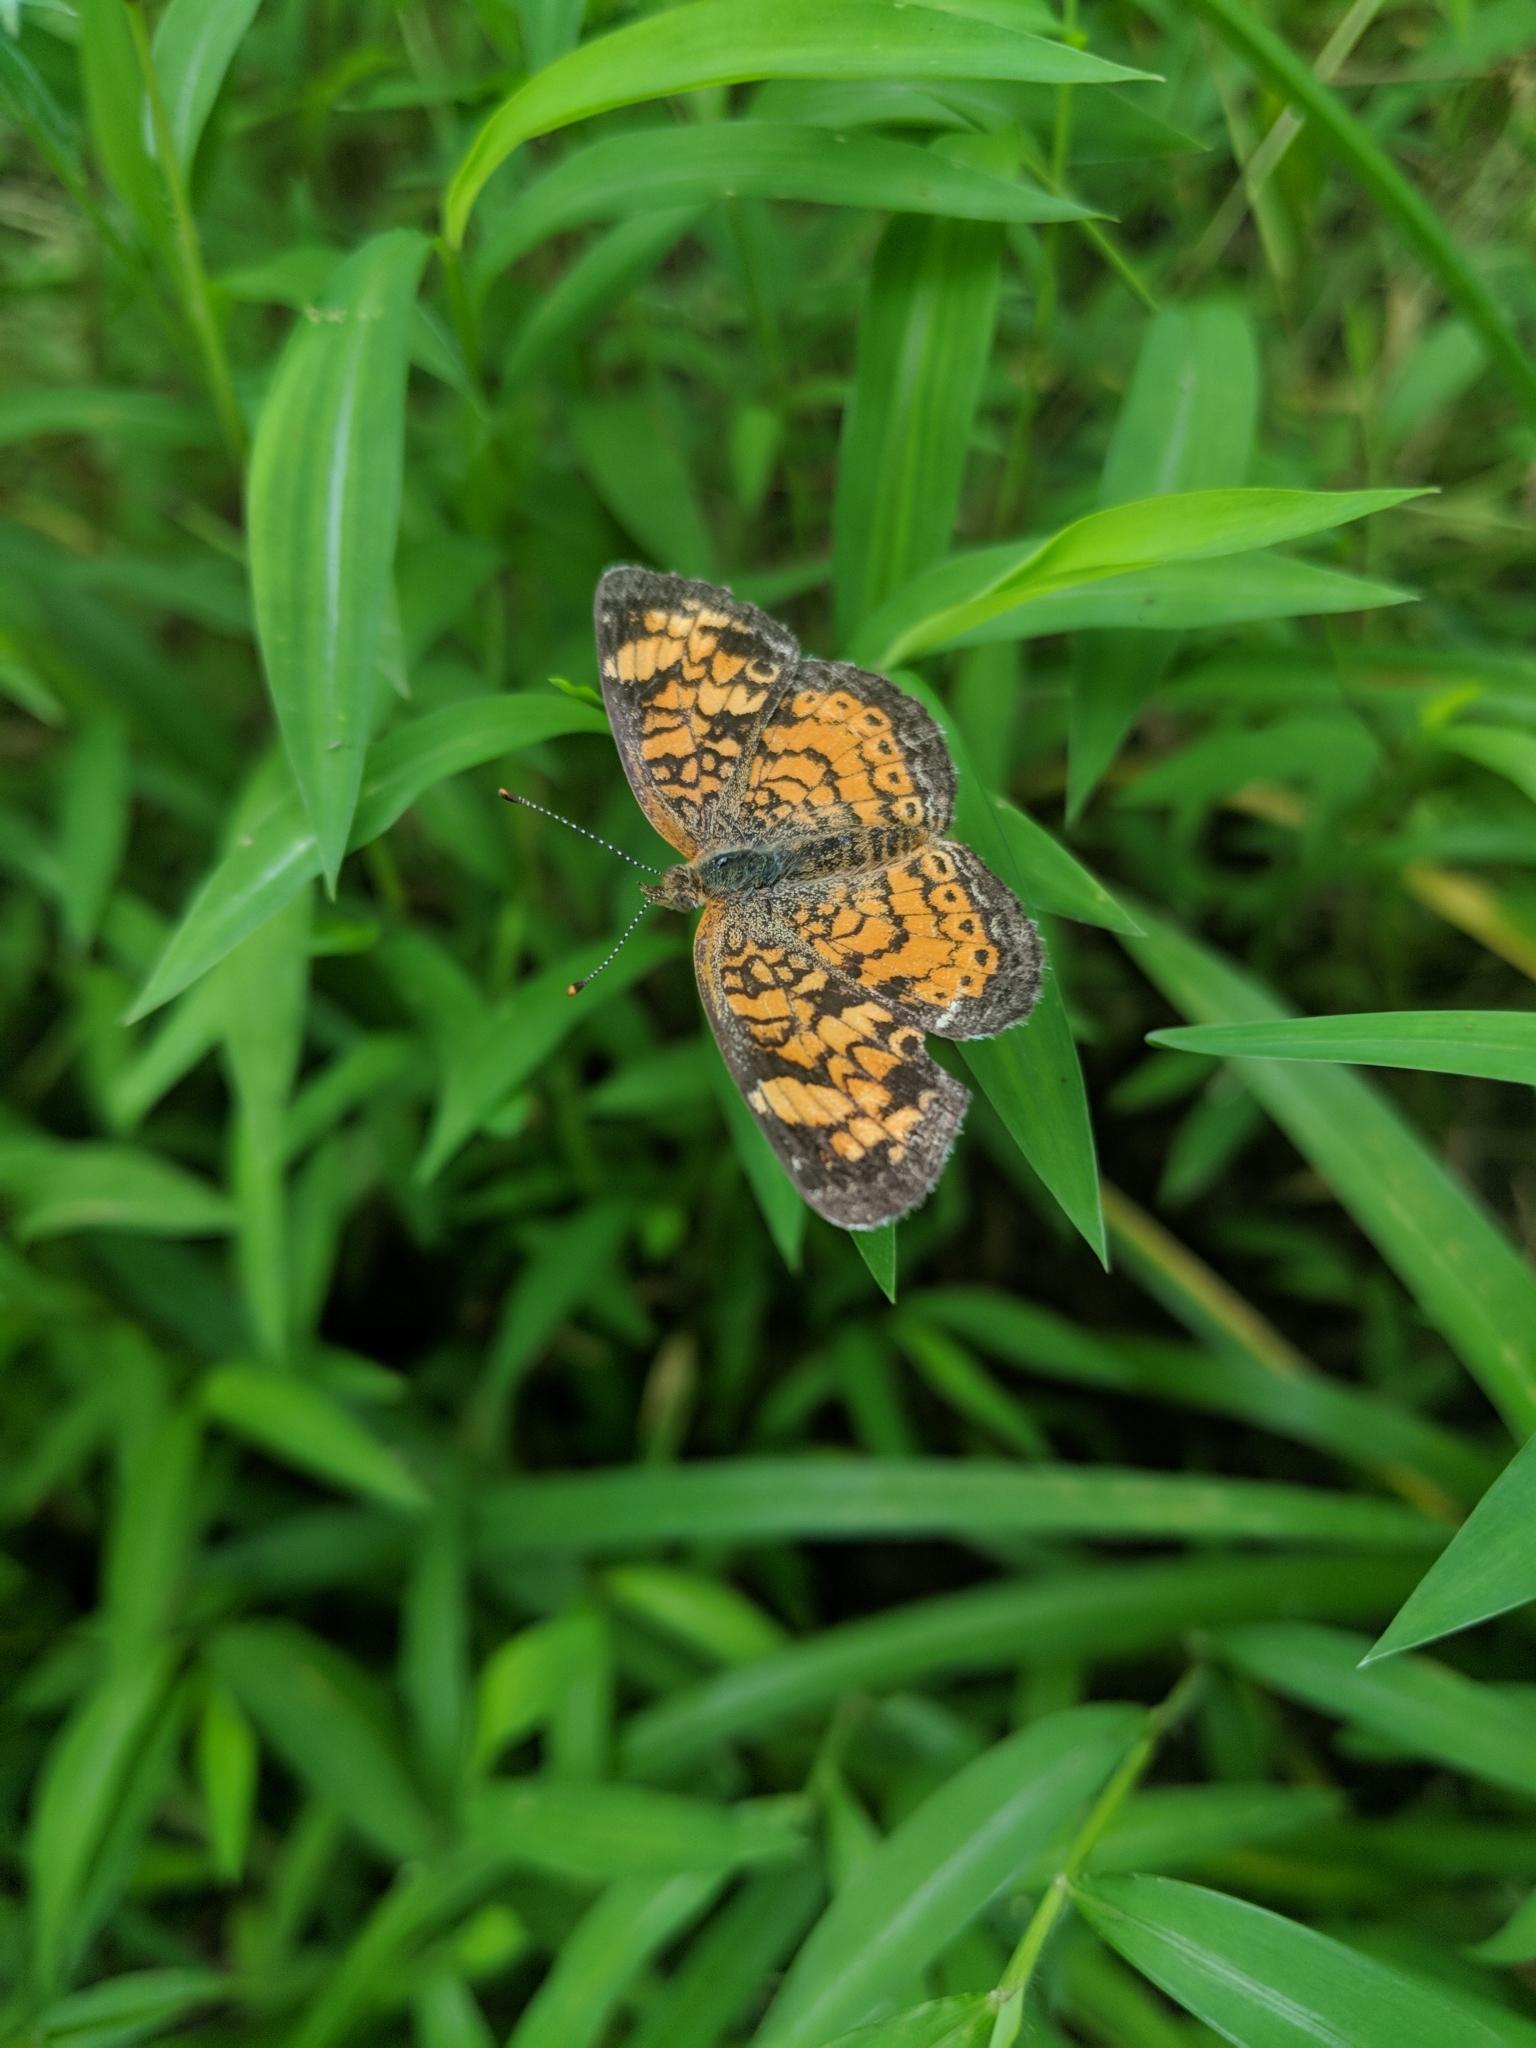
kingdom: Animalia
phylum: Arthropoda
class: Insecta
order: Lepidoptera
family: Nymphalidae
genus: Phyciodes
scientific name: Phyciodes tharos
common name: Pearl crescent
